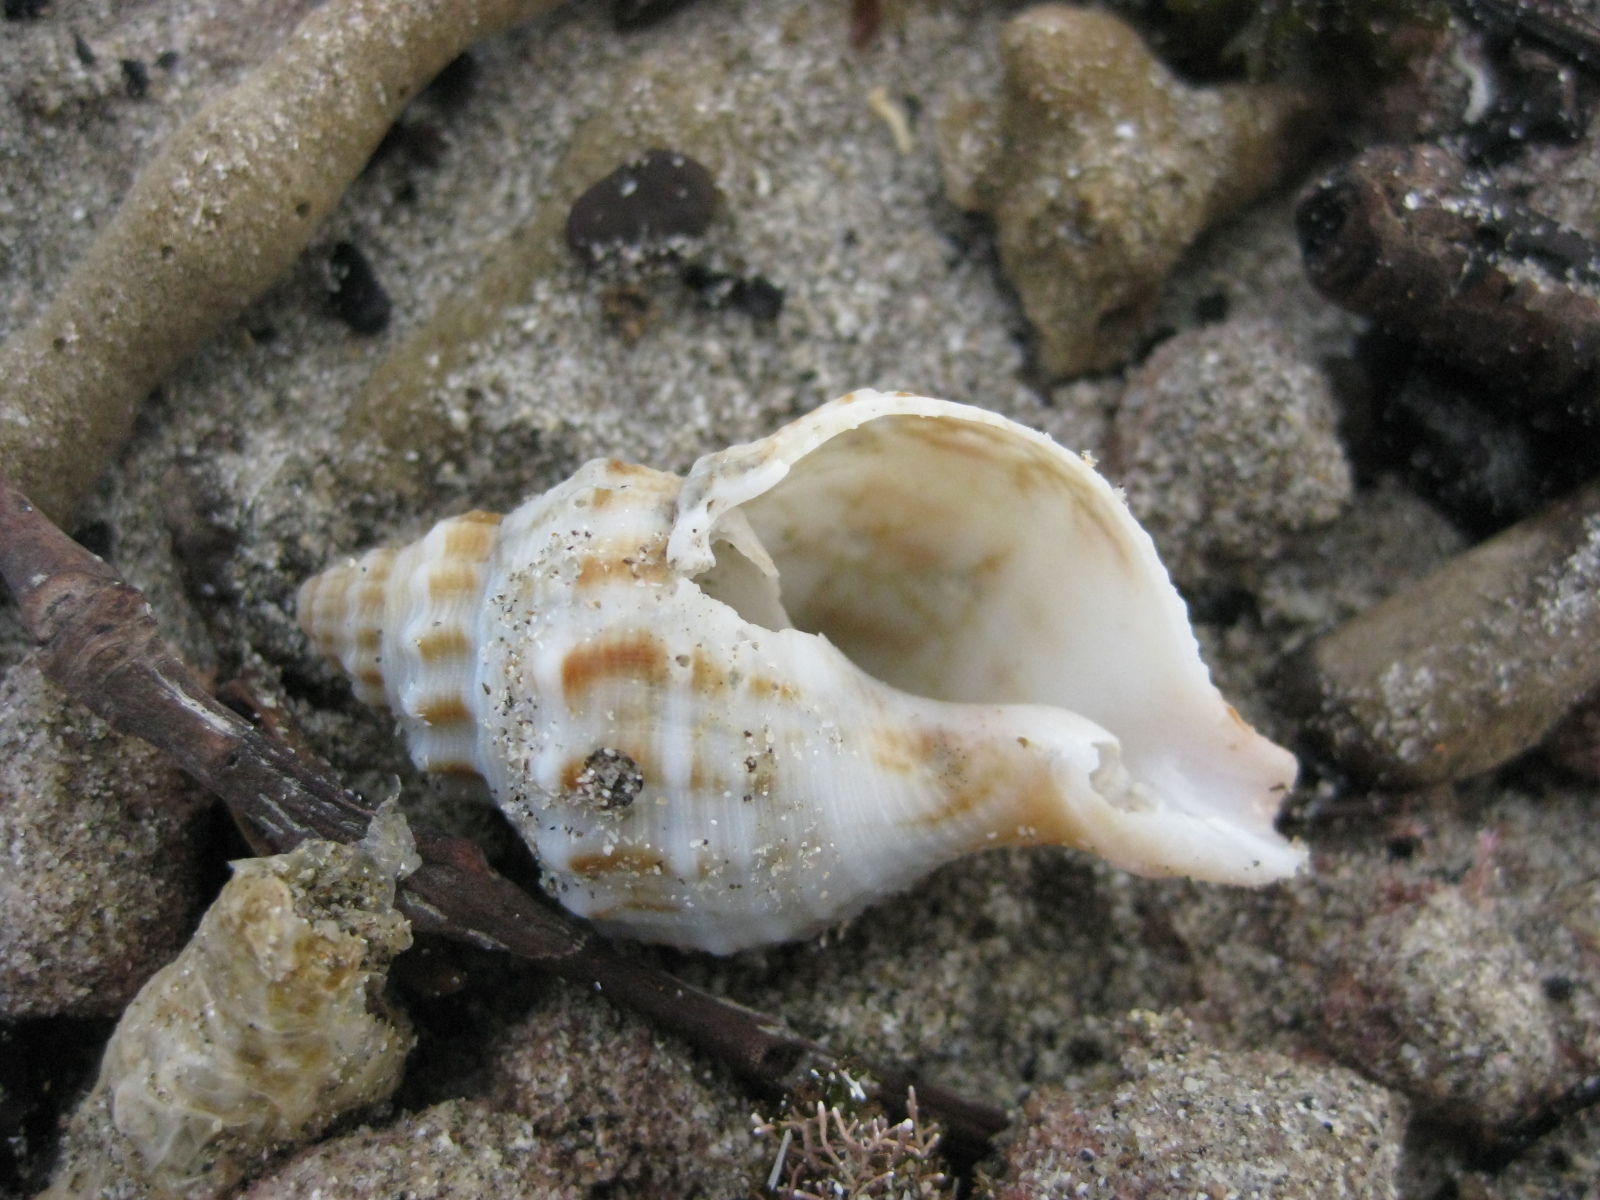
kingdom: Animalia
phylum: Mollusca
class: Gastropoda
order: Neogastropoda
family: Prosiphonidae
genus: Austrofusus
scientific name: Austrofusus glans
